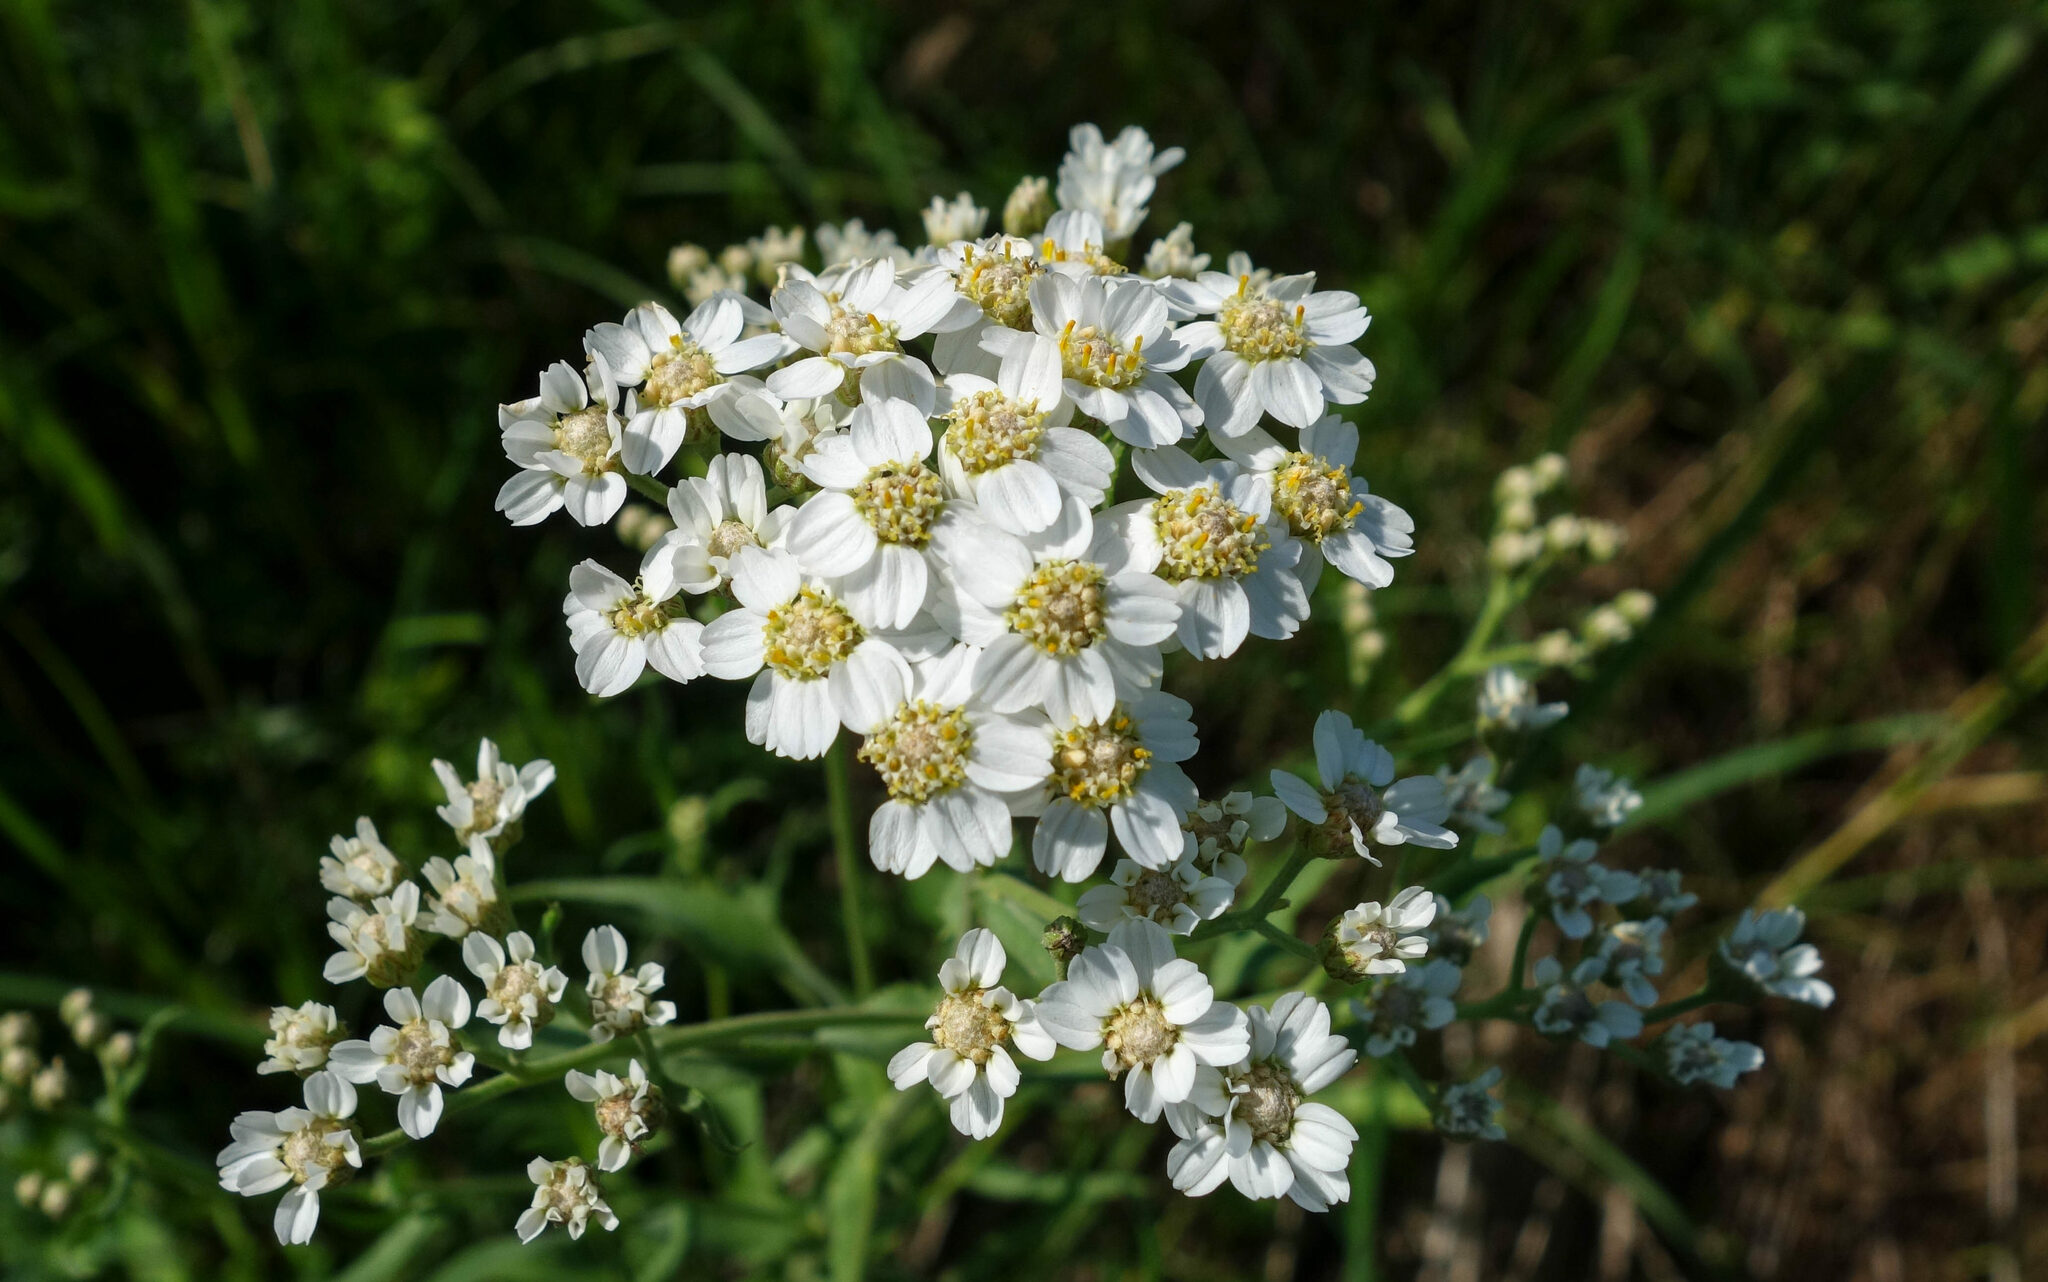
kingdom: Plantae
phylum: Tracheophyta
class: Magnoliopsida
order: Asterales
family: Asteraceae
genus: Achillea
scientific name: Achillea salicifolia
